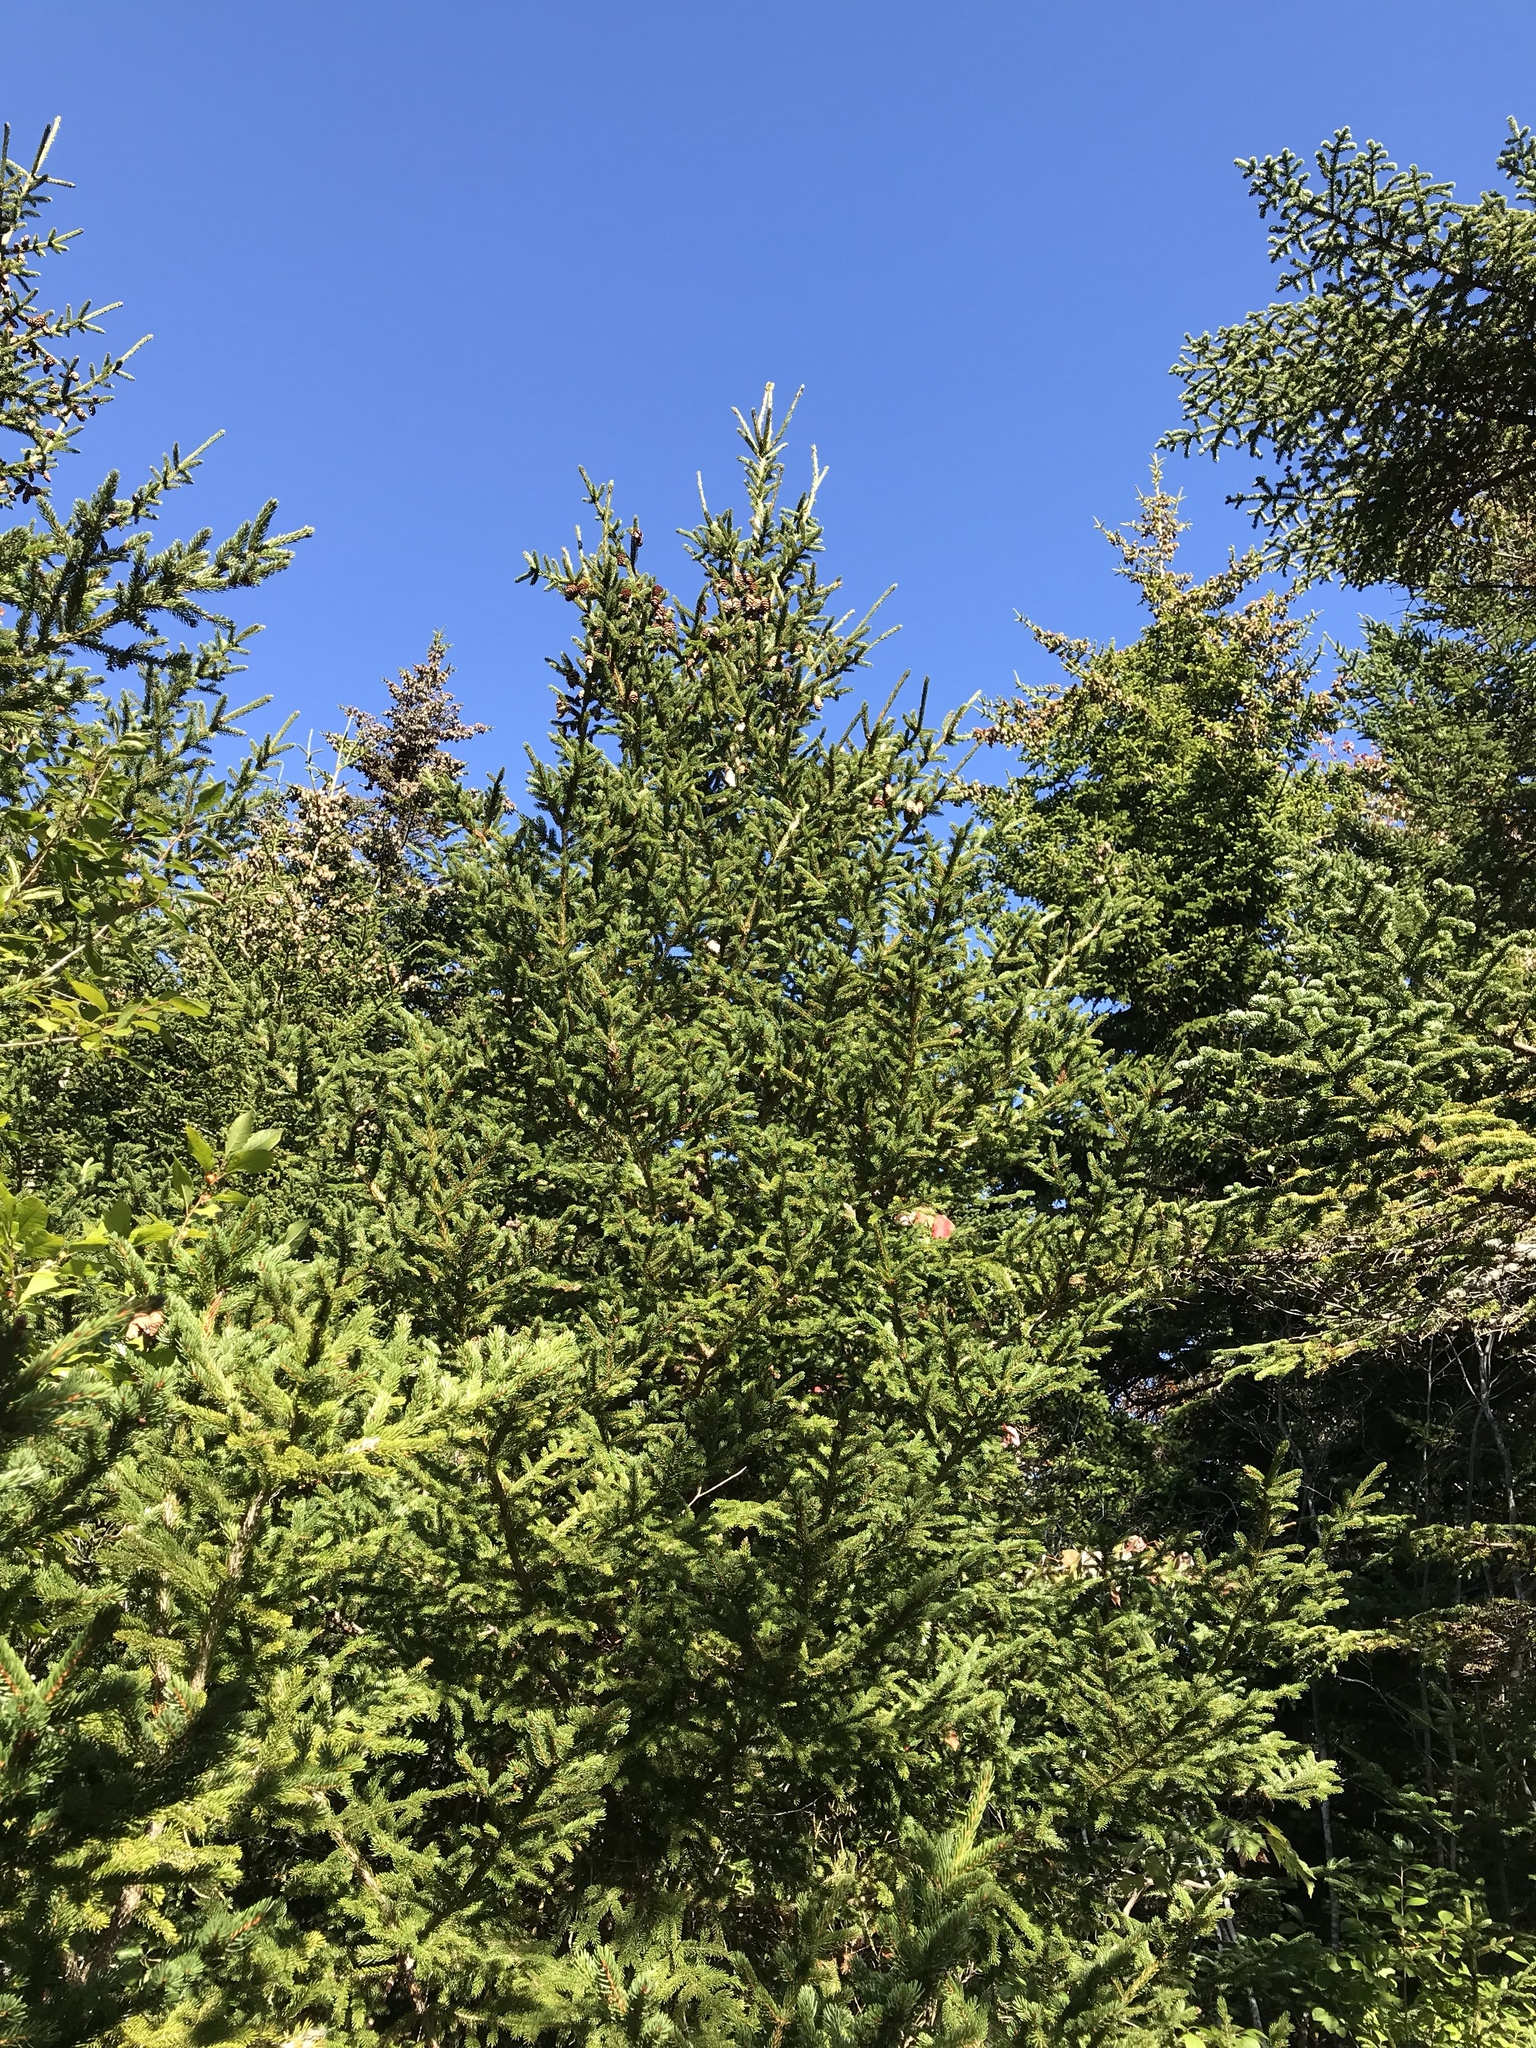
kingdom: Plantae
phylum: Tracheophyta
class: Pinopsida
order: Pinales
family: Pinaceae
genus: Picea
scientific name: Picea rubens
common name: Red spruce
